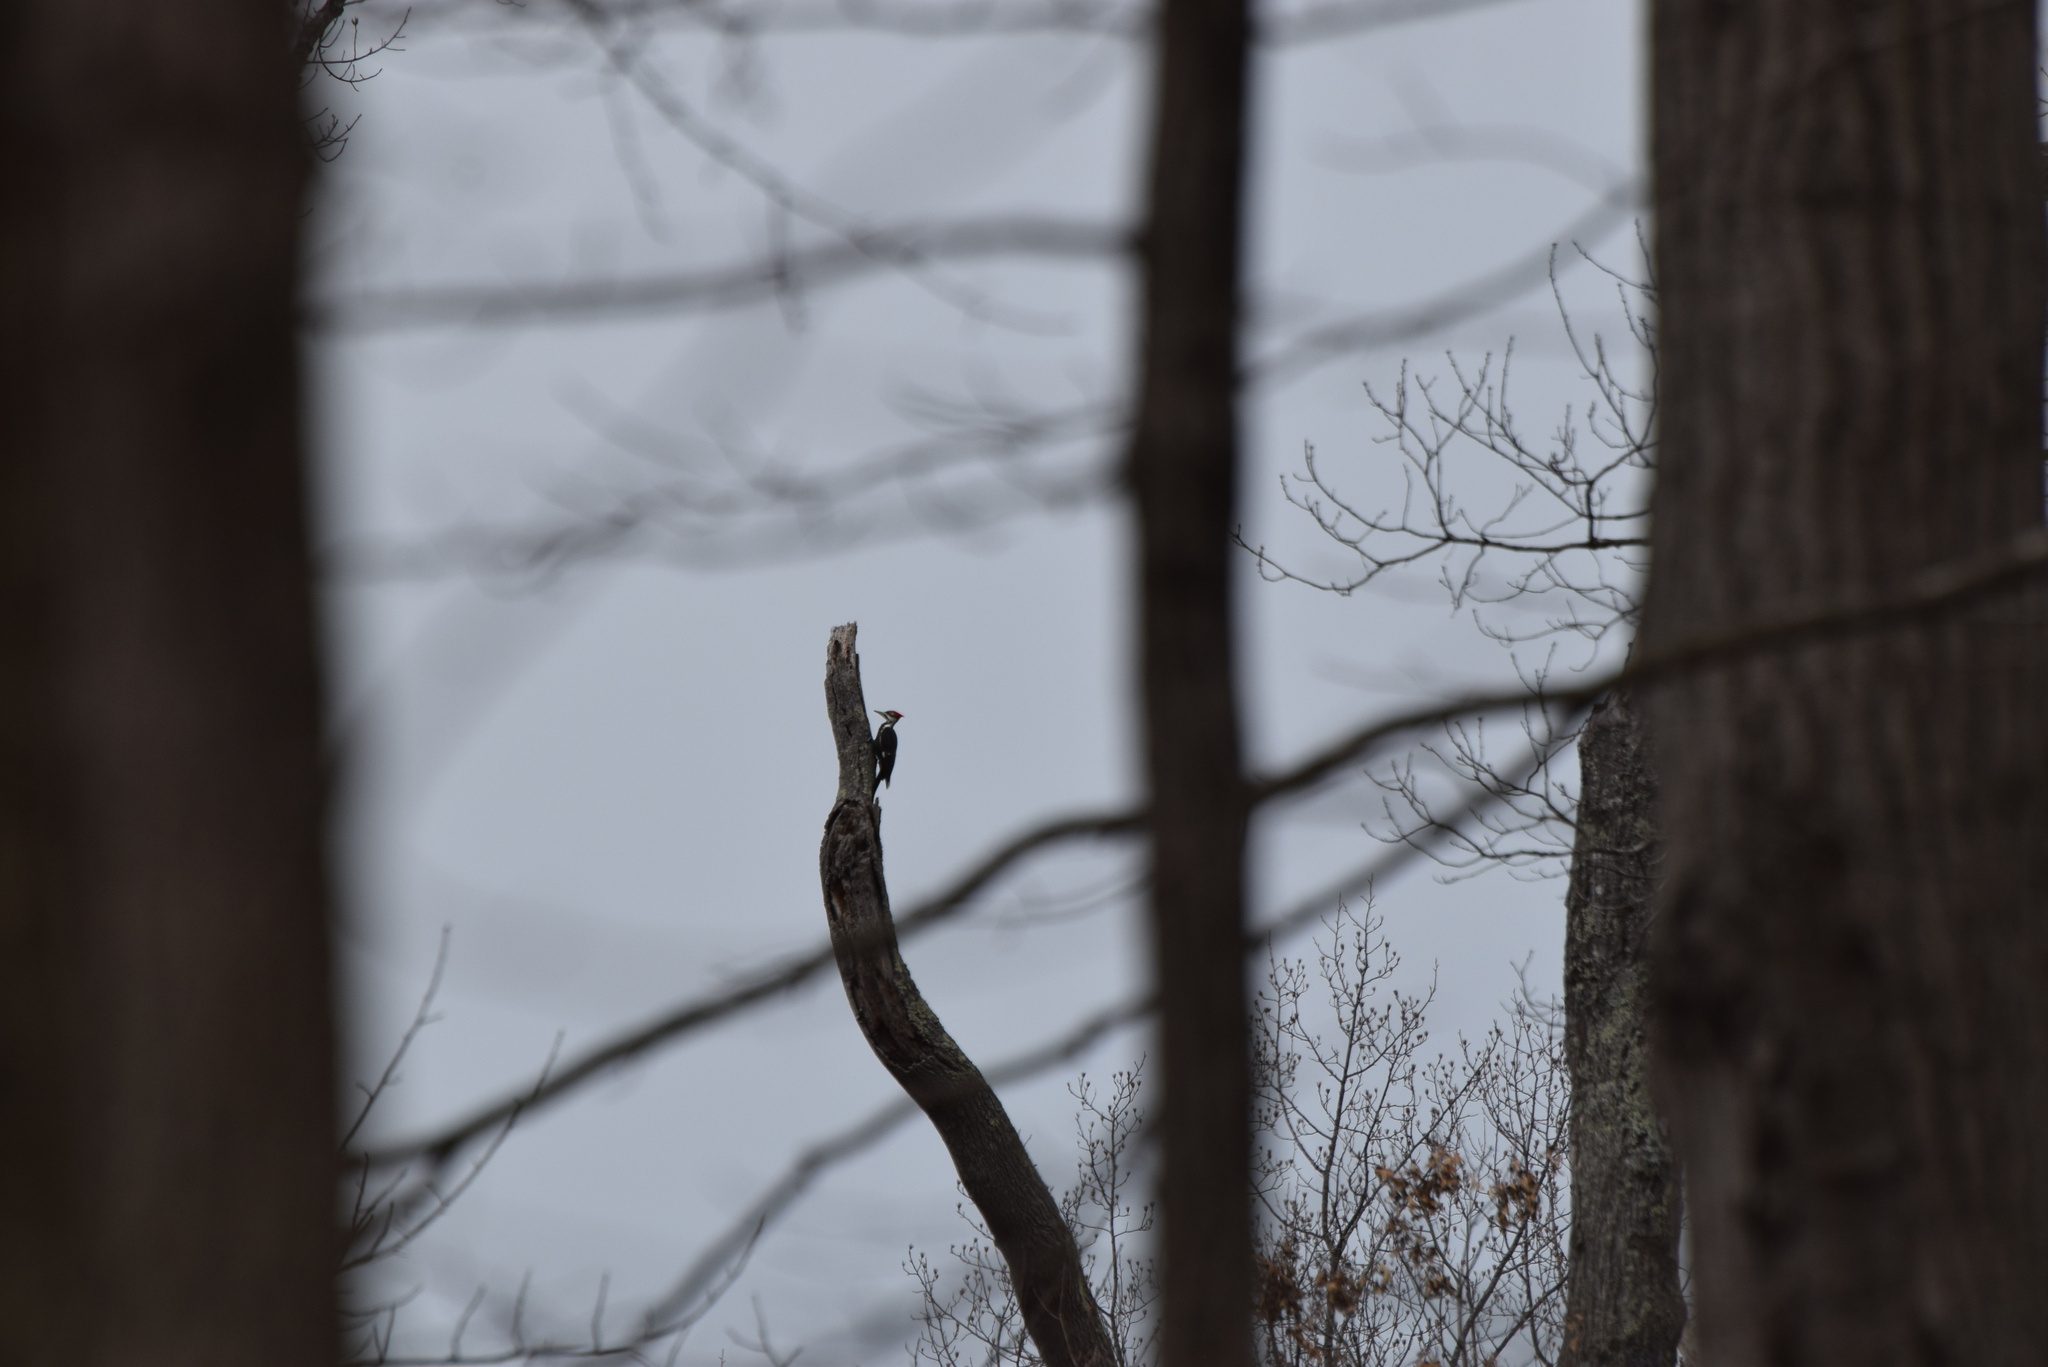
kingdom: Animalia
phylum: Chordata
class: Aves
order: Piciformes
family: Picidae
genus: Dryocopus
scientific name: Dryocopus pileatus
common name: Pileated woodpecker
